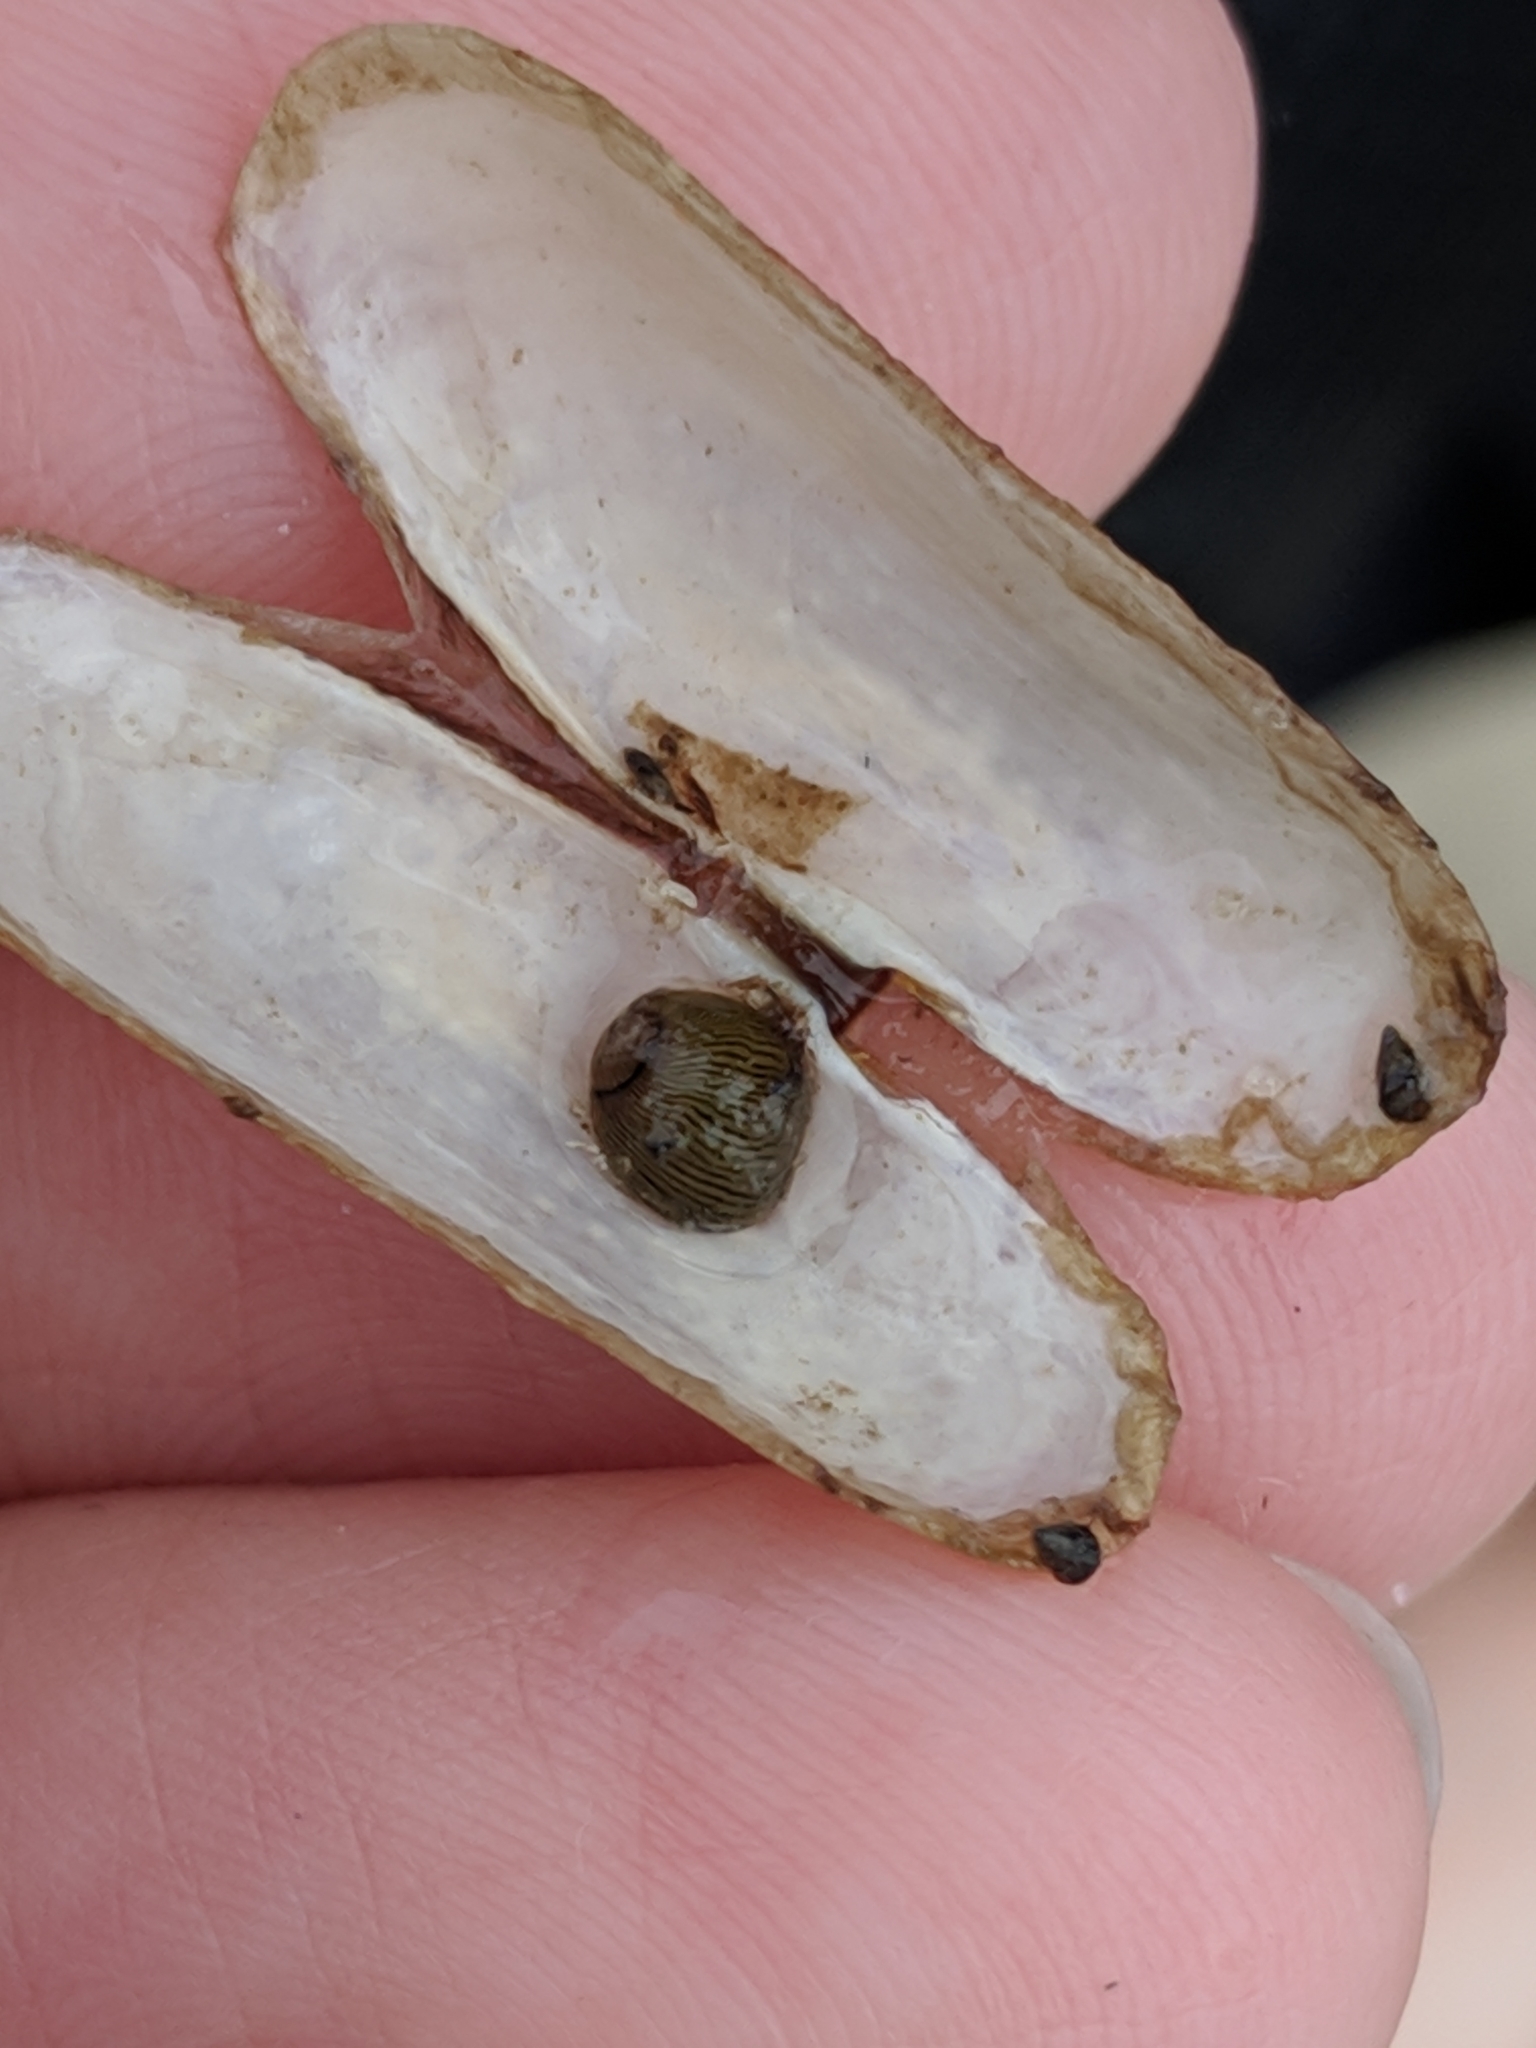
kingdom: Animalia
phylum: Mollusca
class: Gastropoda
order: Cycloneritida
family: Neritidae
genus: Vitta
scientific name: Vitta usnea
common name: Olive nerite
